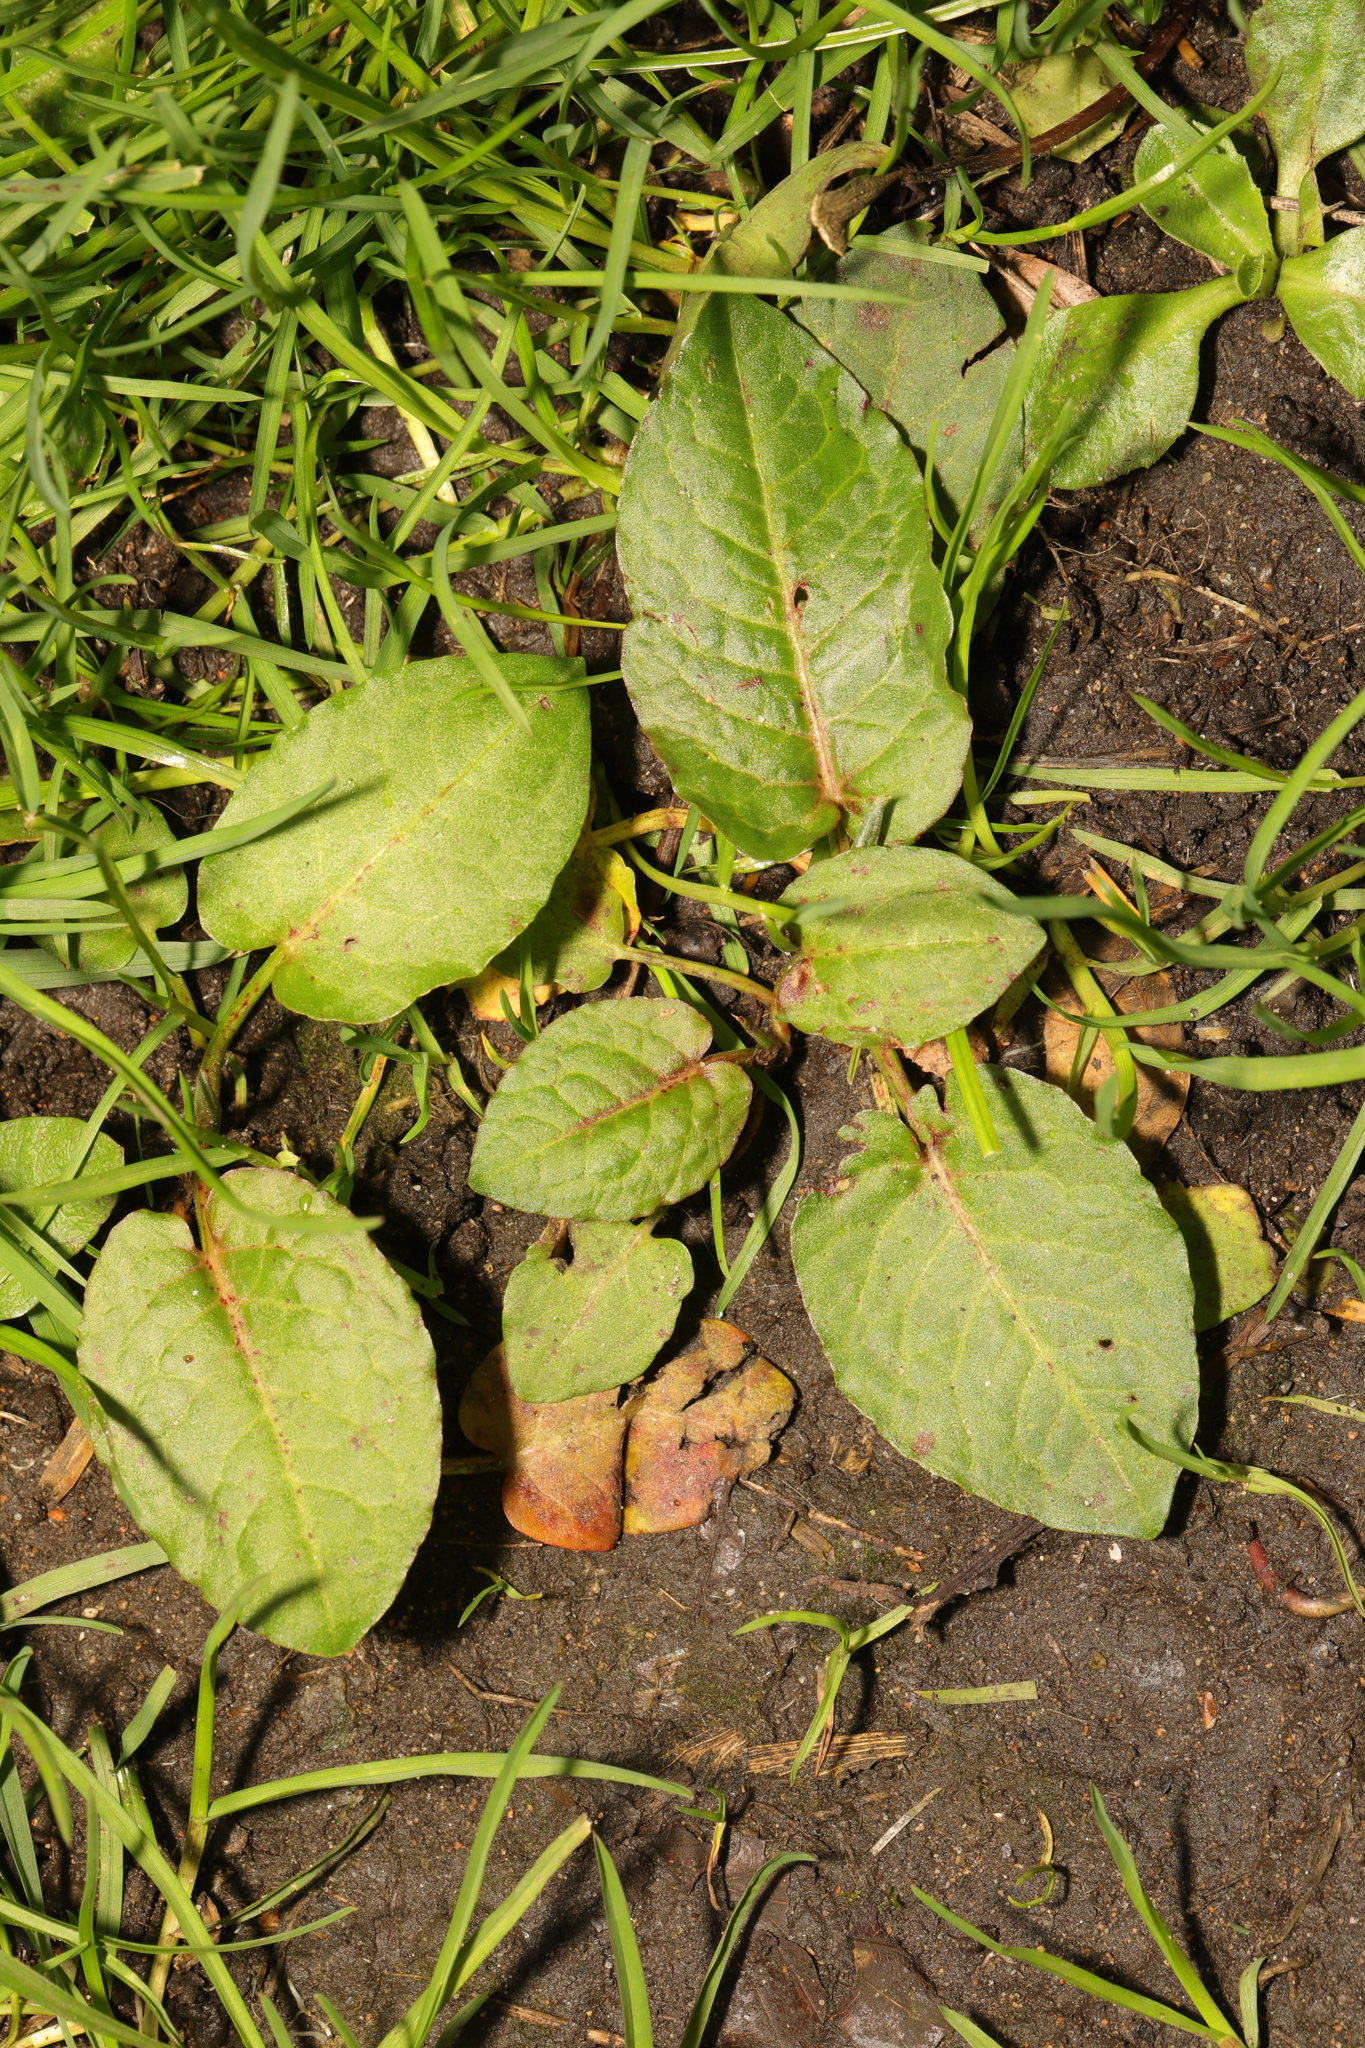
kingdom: Plantae
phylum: Tracheophyta
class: Magnoliopsida
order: Caryophyllales
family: Polygonaceae
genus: Rumex
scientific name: Rumex obtusifolius
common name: Bitter dock
